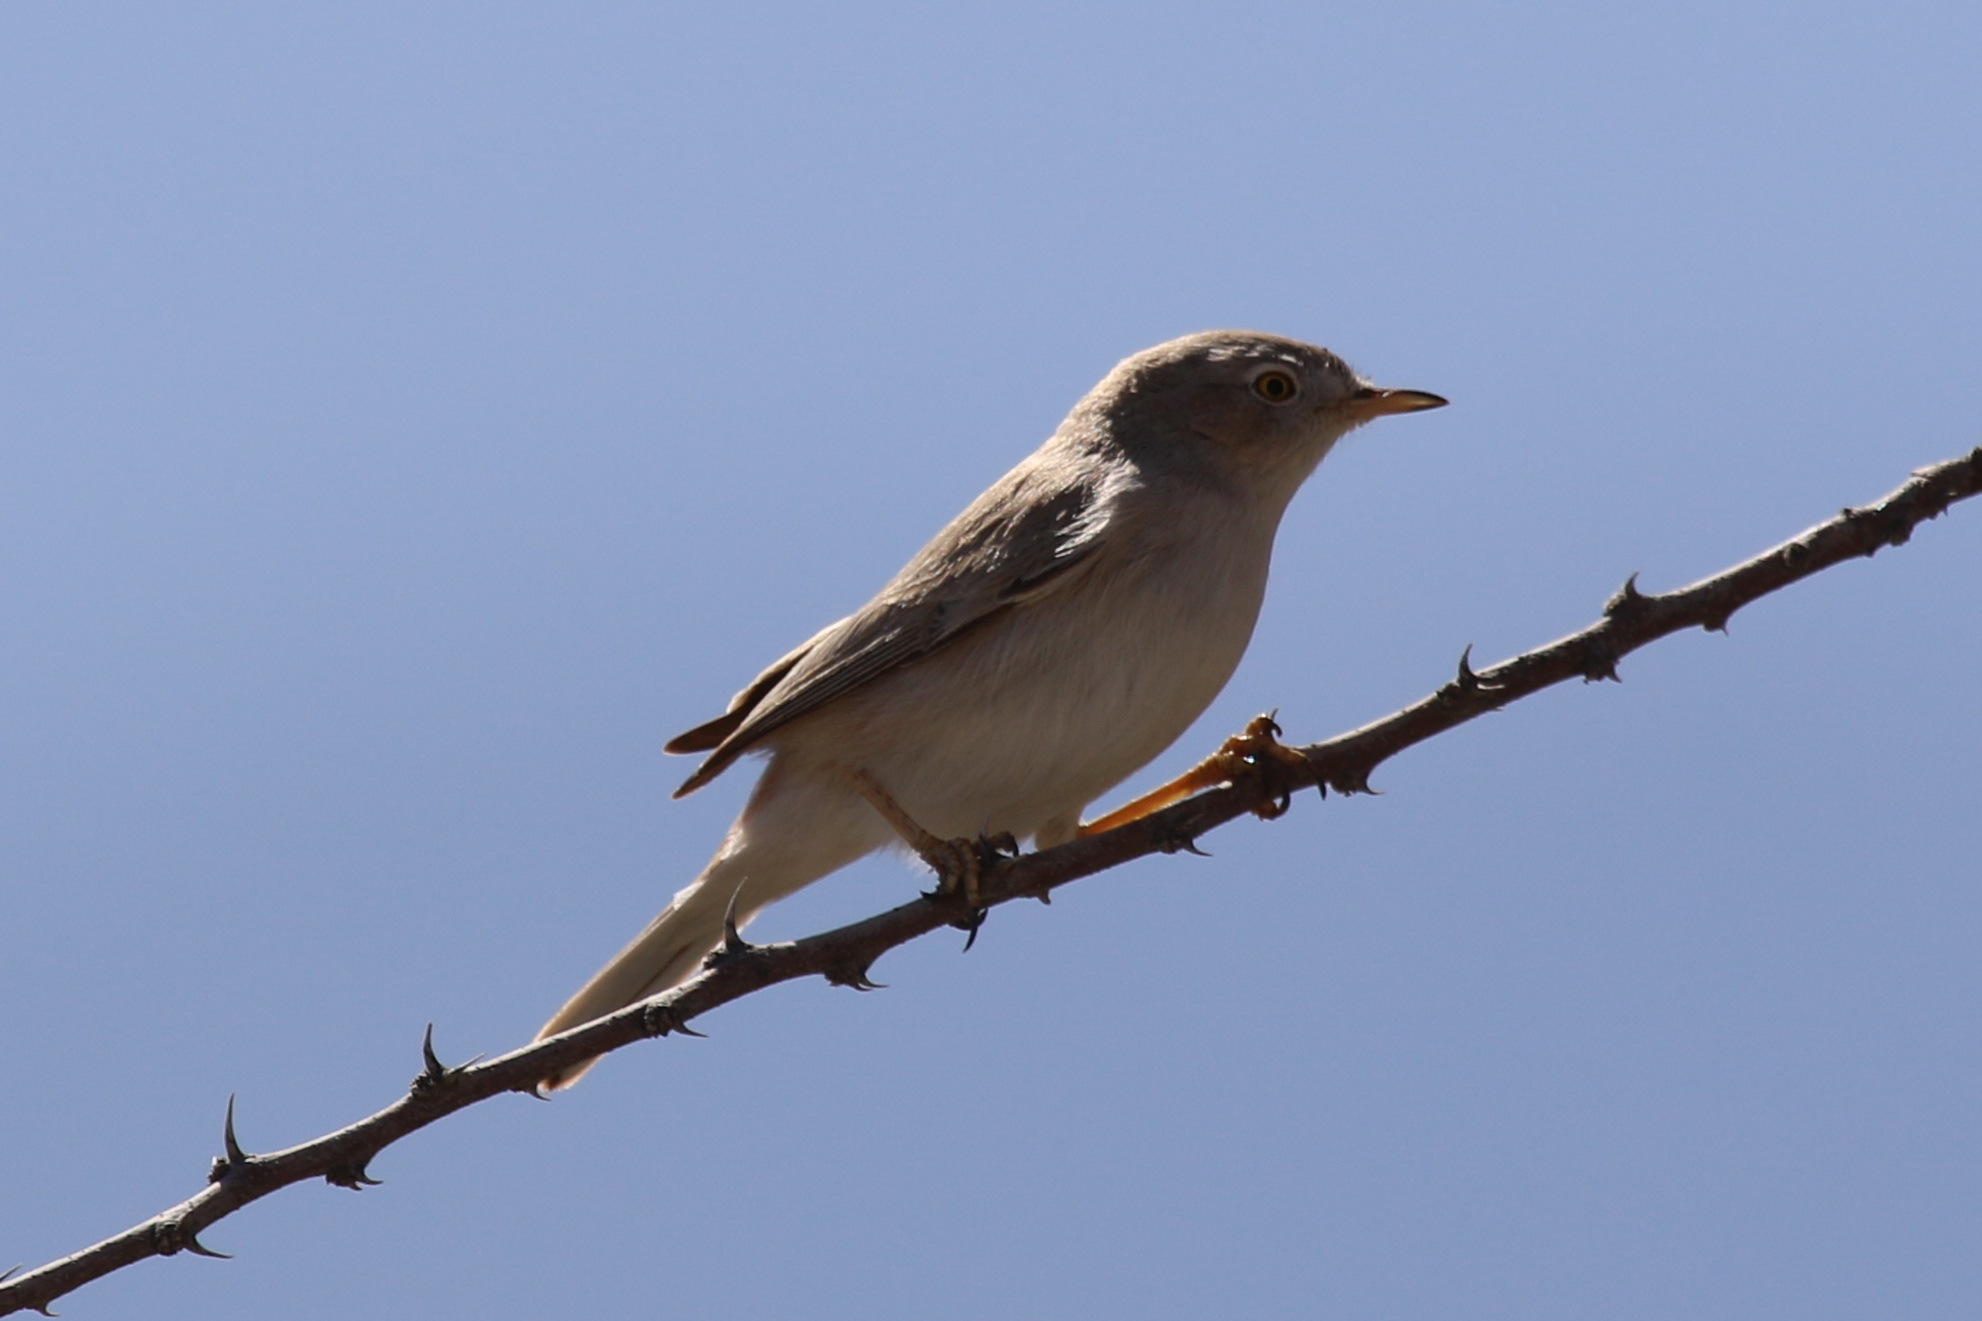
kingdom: Animalia
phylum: Chordata
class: Aves
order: Passeriformes
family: Sylviidae
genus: Sylvia
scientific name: Sylvia nana
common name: Asian desert warbler
